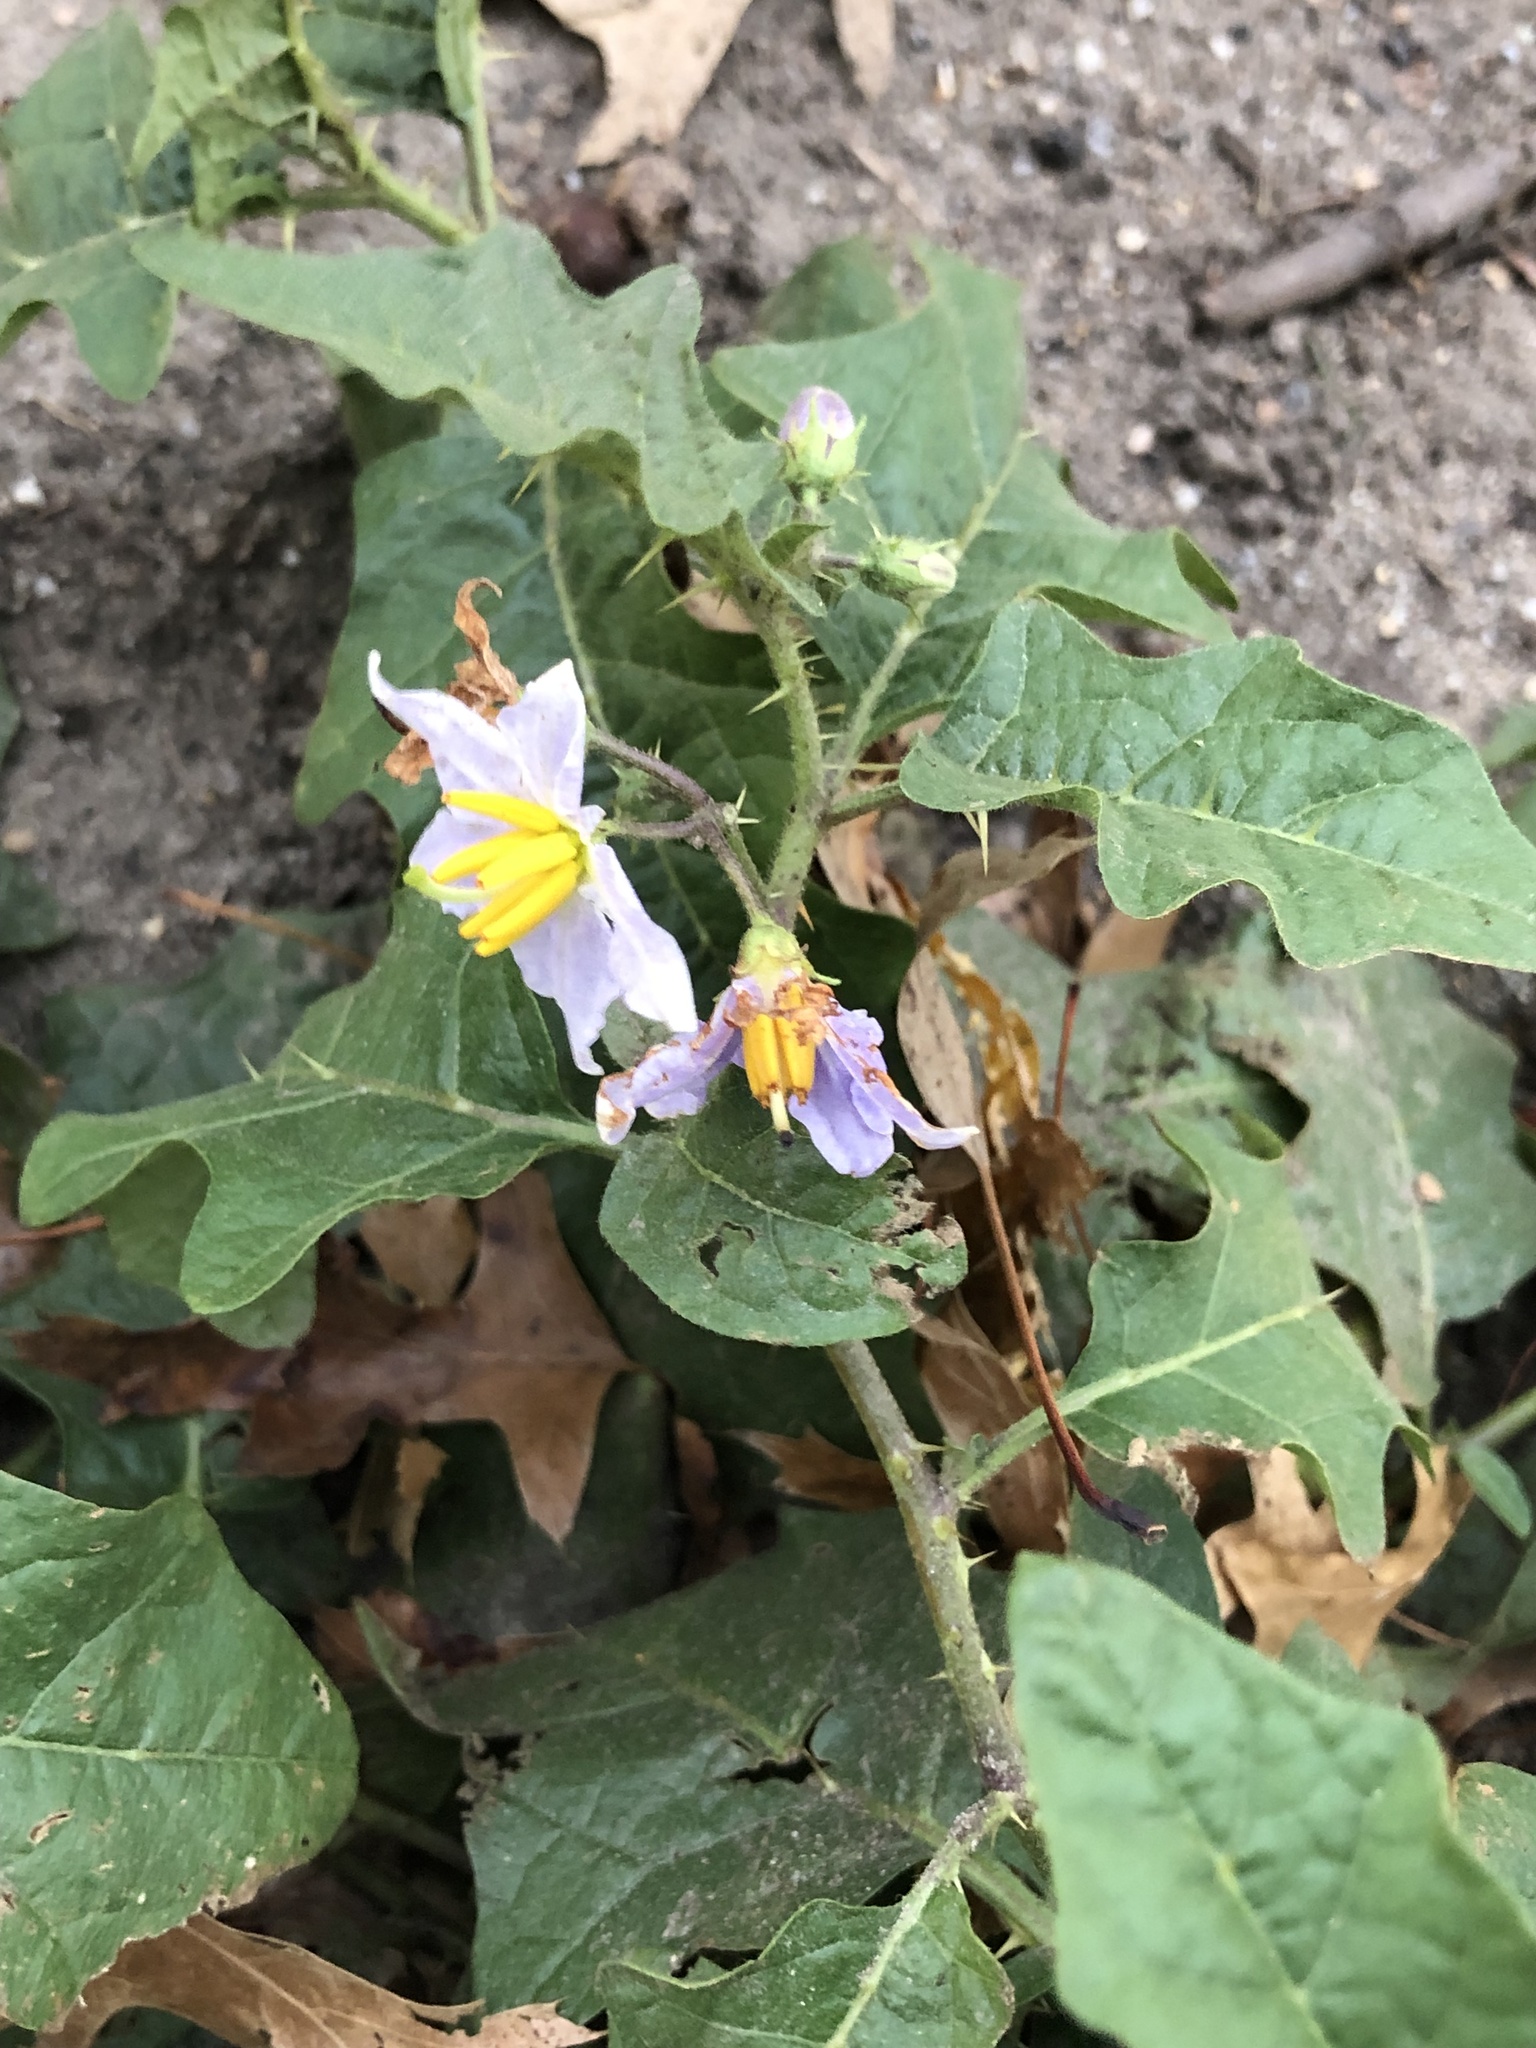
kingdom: Plantae
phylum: Tracheophyta
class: Magnoliopsida
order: Solanales
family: Solanaceae
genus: Solanum
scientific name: Solanum carolinense
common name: Horse-nettle
